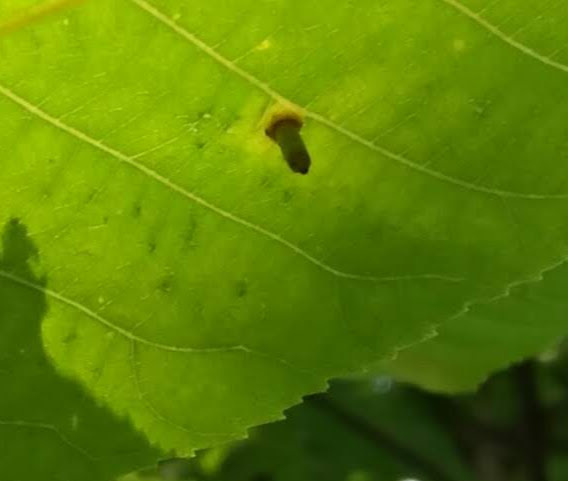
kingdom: Animalia
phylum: Arthropoda
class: Insecta
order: Diptera
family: Cecidomyiidae
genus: Caryomyia
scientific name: Caryomyia tubicola
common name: Hickory bullet gall midge
